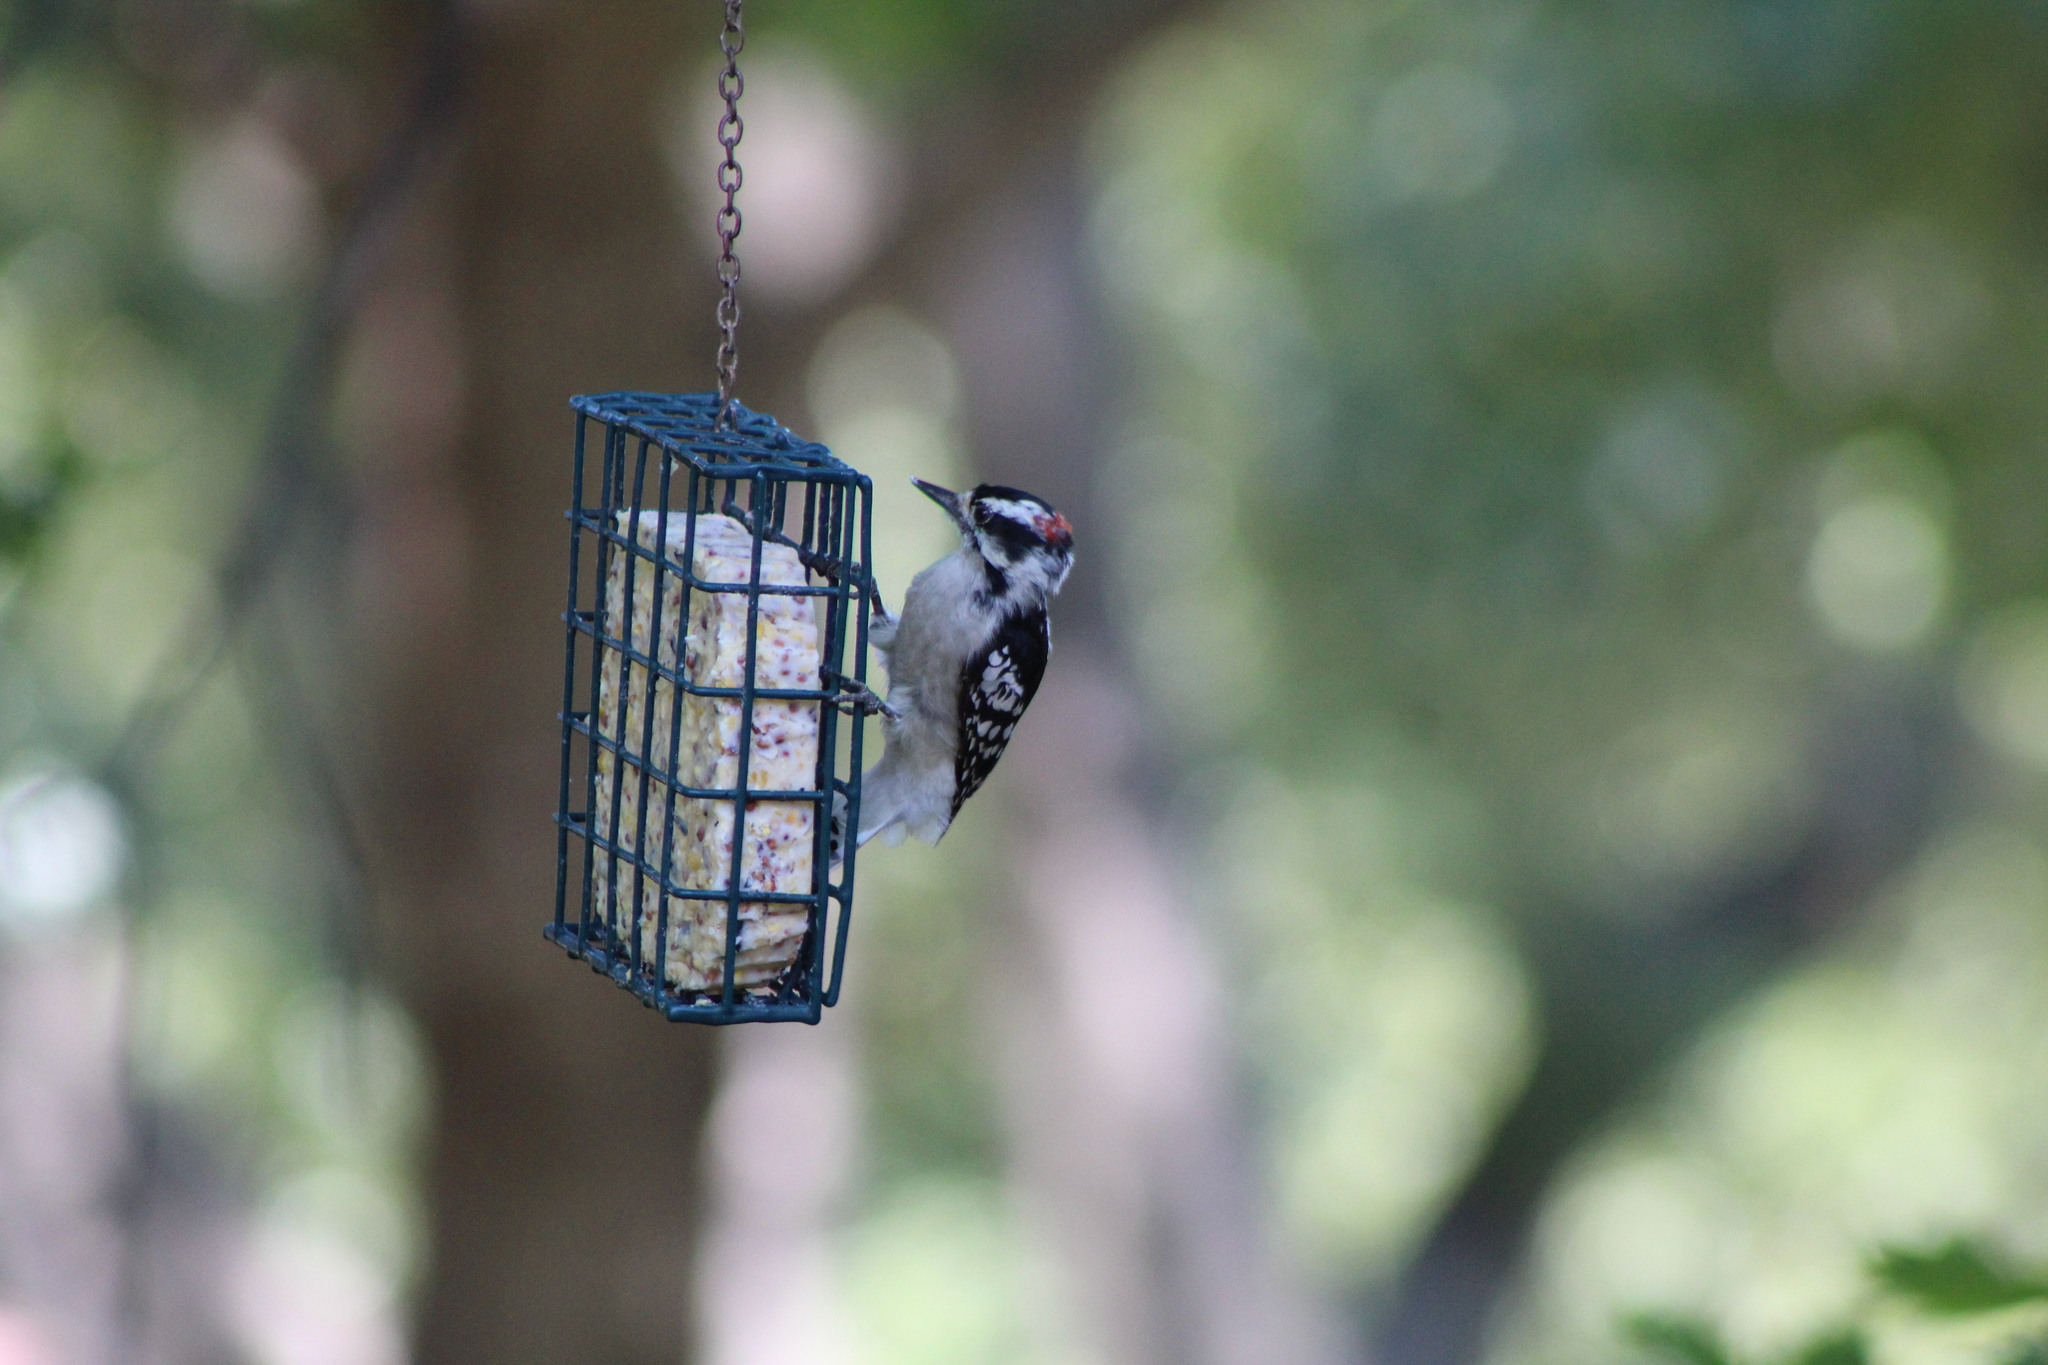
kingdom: Animalia
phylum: Chordata
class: Aves
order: Piciformes
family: Picidae
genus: Dryobates
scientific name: Dryobates pubescens
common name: Downy woodpecker
